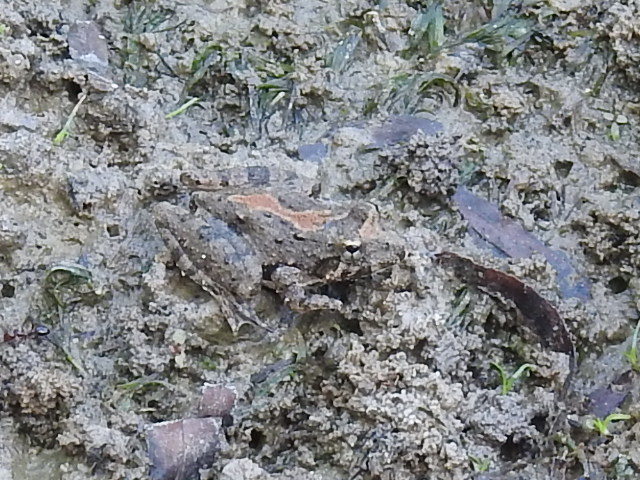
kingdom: Animalia
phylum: Chordata
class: Amphibia
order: Anura
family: Hylidae
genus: Acris
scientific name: Acris blanchardi
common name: Blanchard's cricket frog
